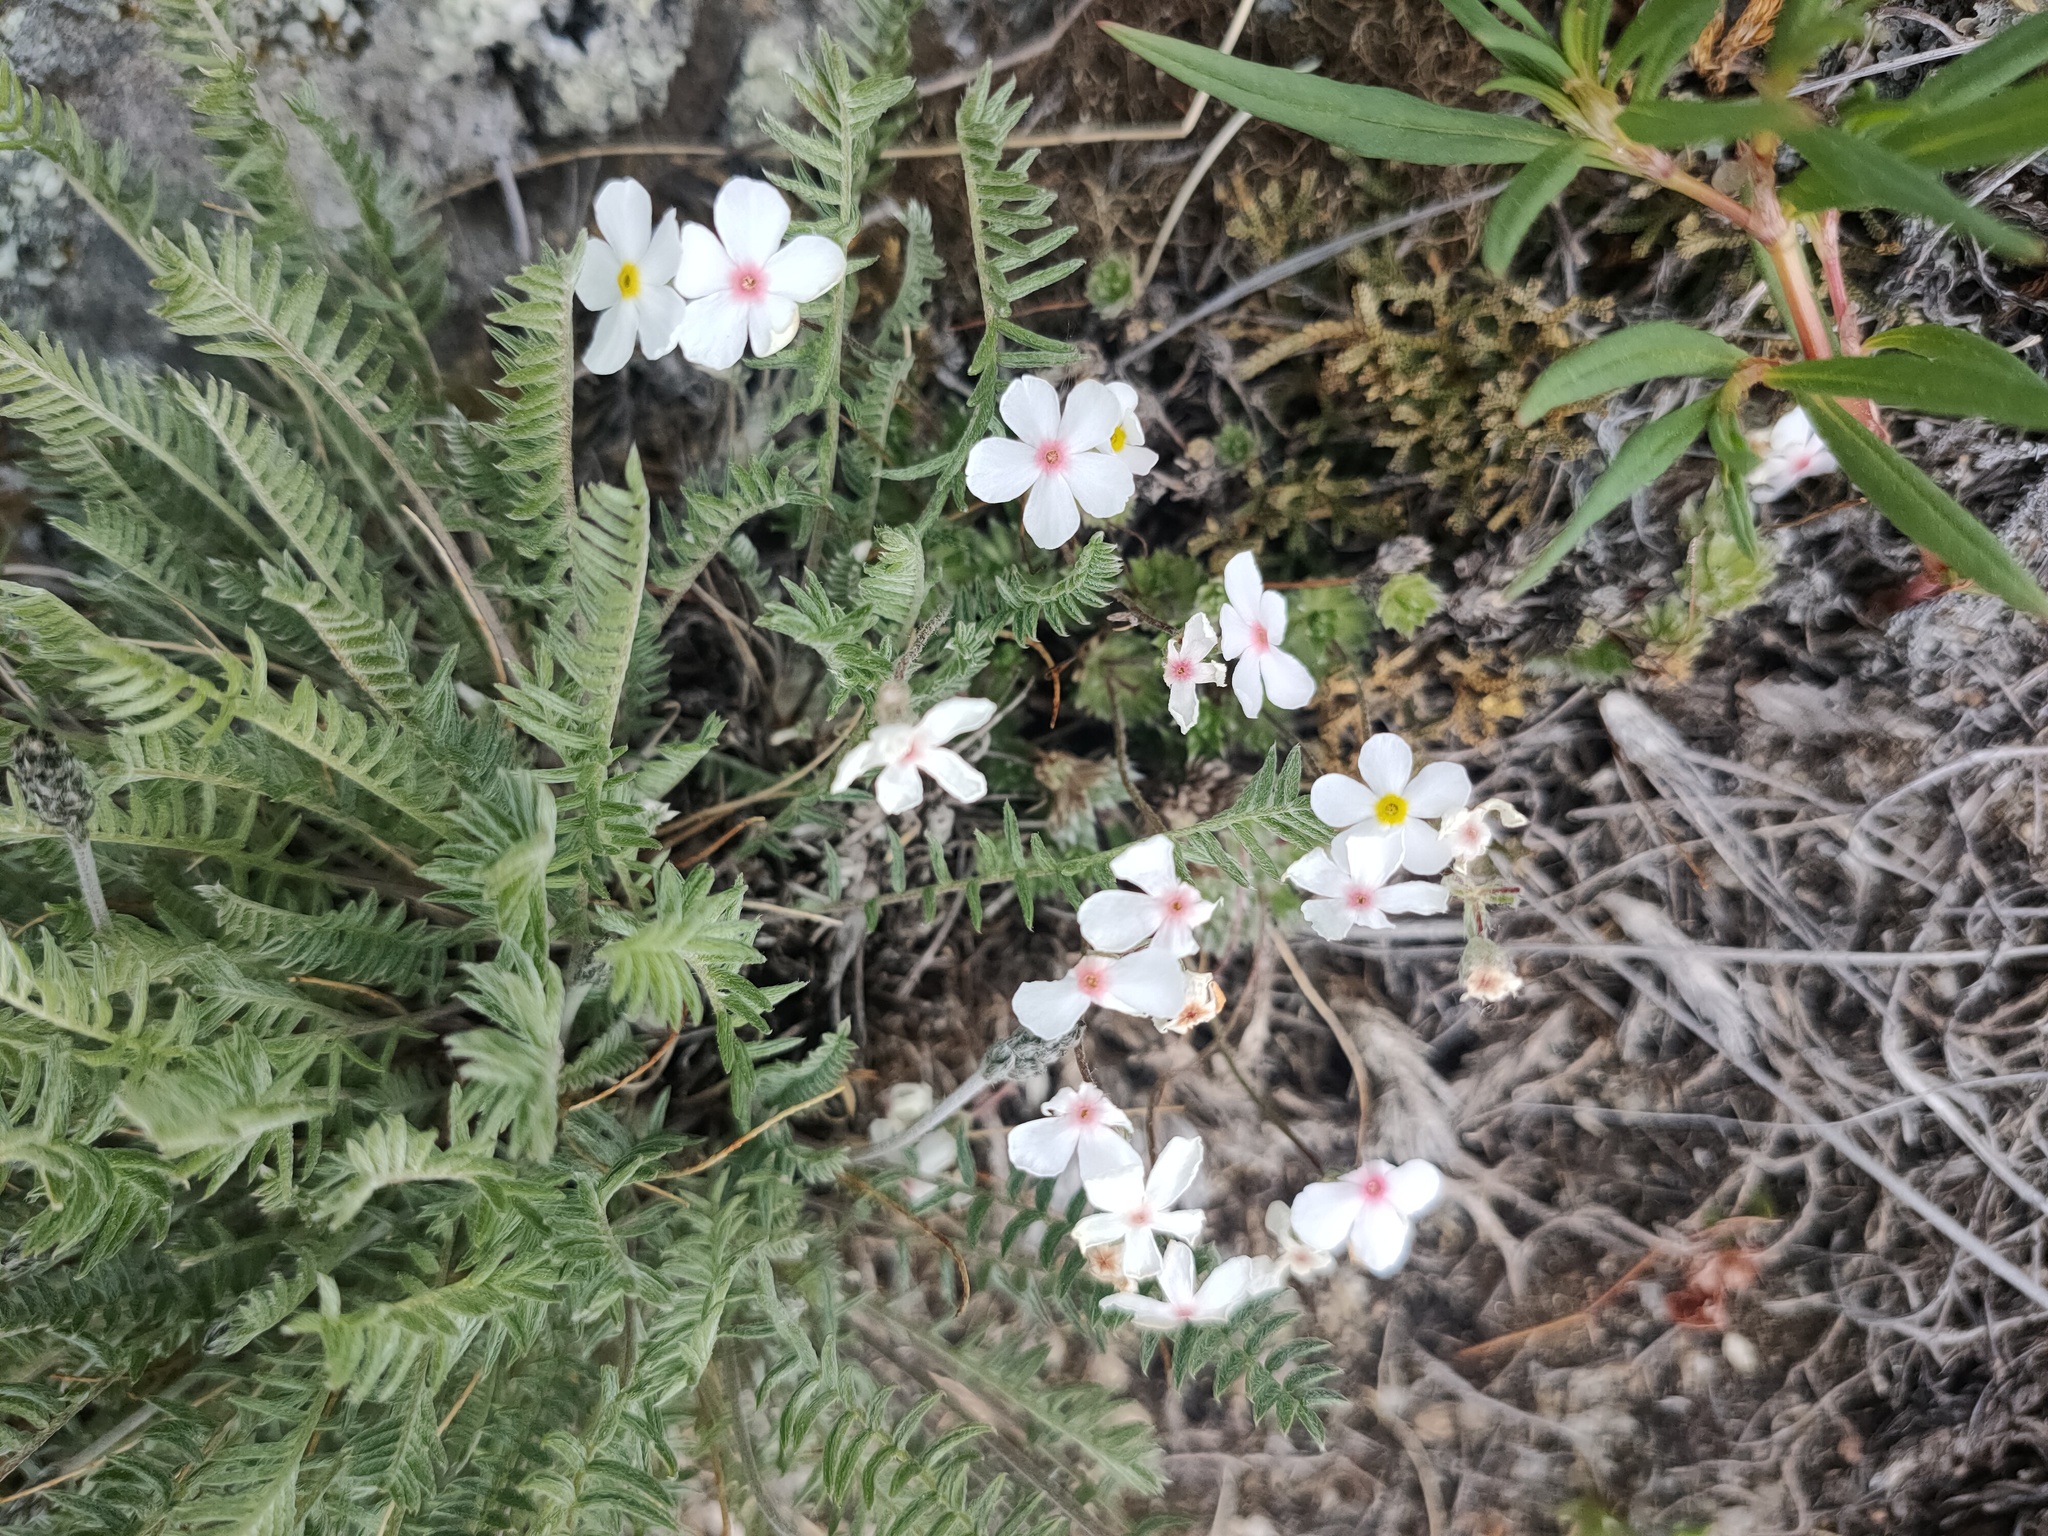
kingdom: Plantae
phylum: Tracheophyta
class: Magnoliopsida
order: Ericales
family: Primulaceae
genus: Androsace
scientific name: Androsace incana
